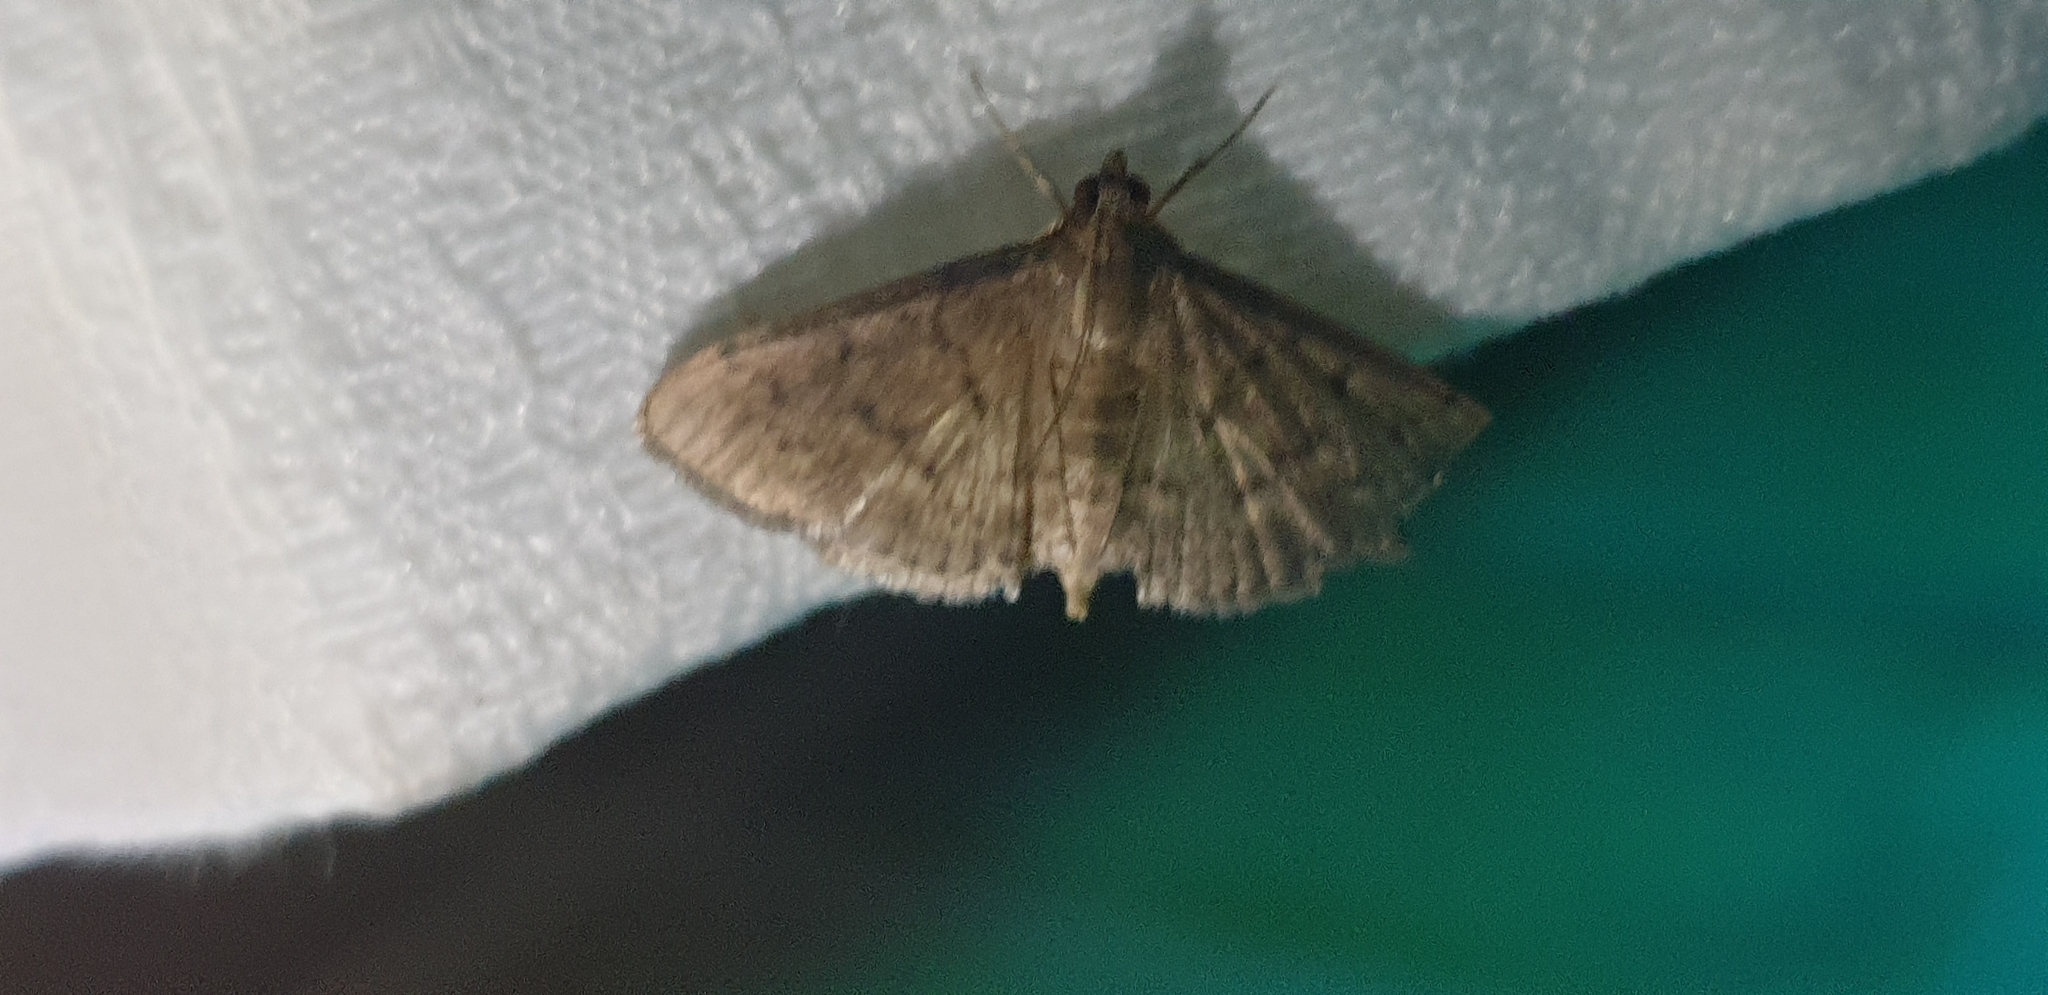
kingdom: Animalia
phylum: Arthropoda
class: Insecta
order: Lepidoptera
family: Crambidae
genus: Herpetogramma
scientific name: Herpetogramma licarsisalis
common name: Grass webworm
